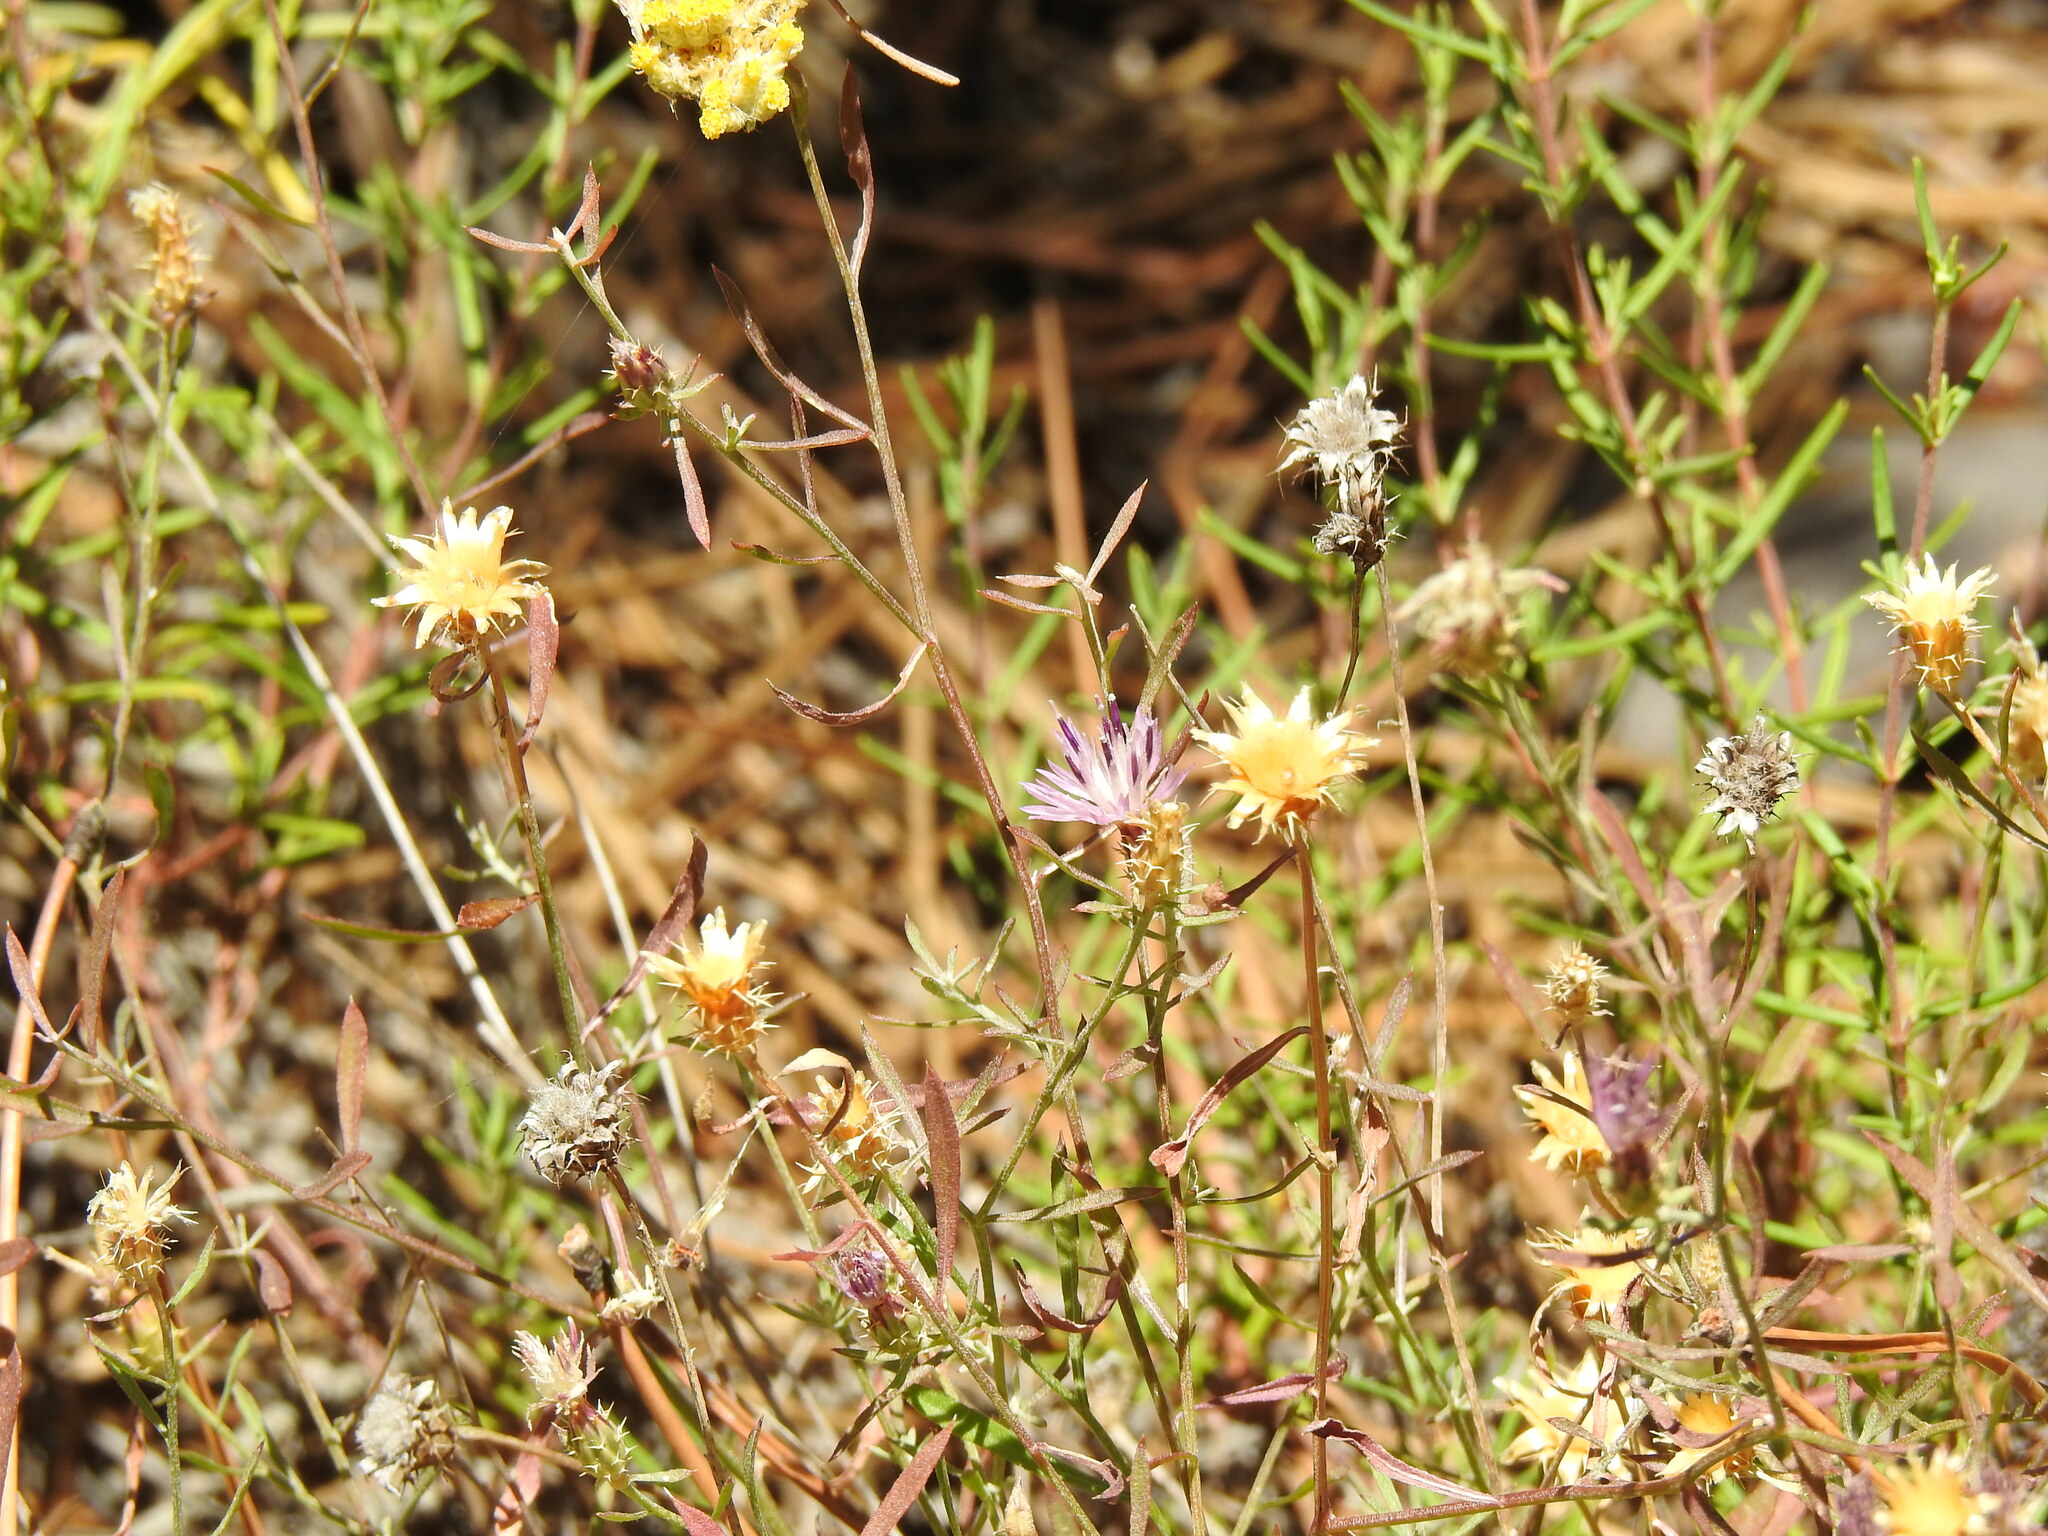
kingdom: Plantae
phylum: Tracheophyta
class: Magnoliopsida
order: Asterales
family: Asteraceae
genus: Centaurea
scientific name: Centaurea aspera
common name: Rough star-thistle
